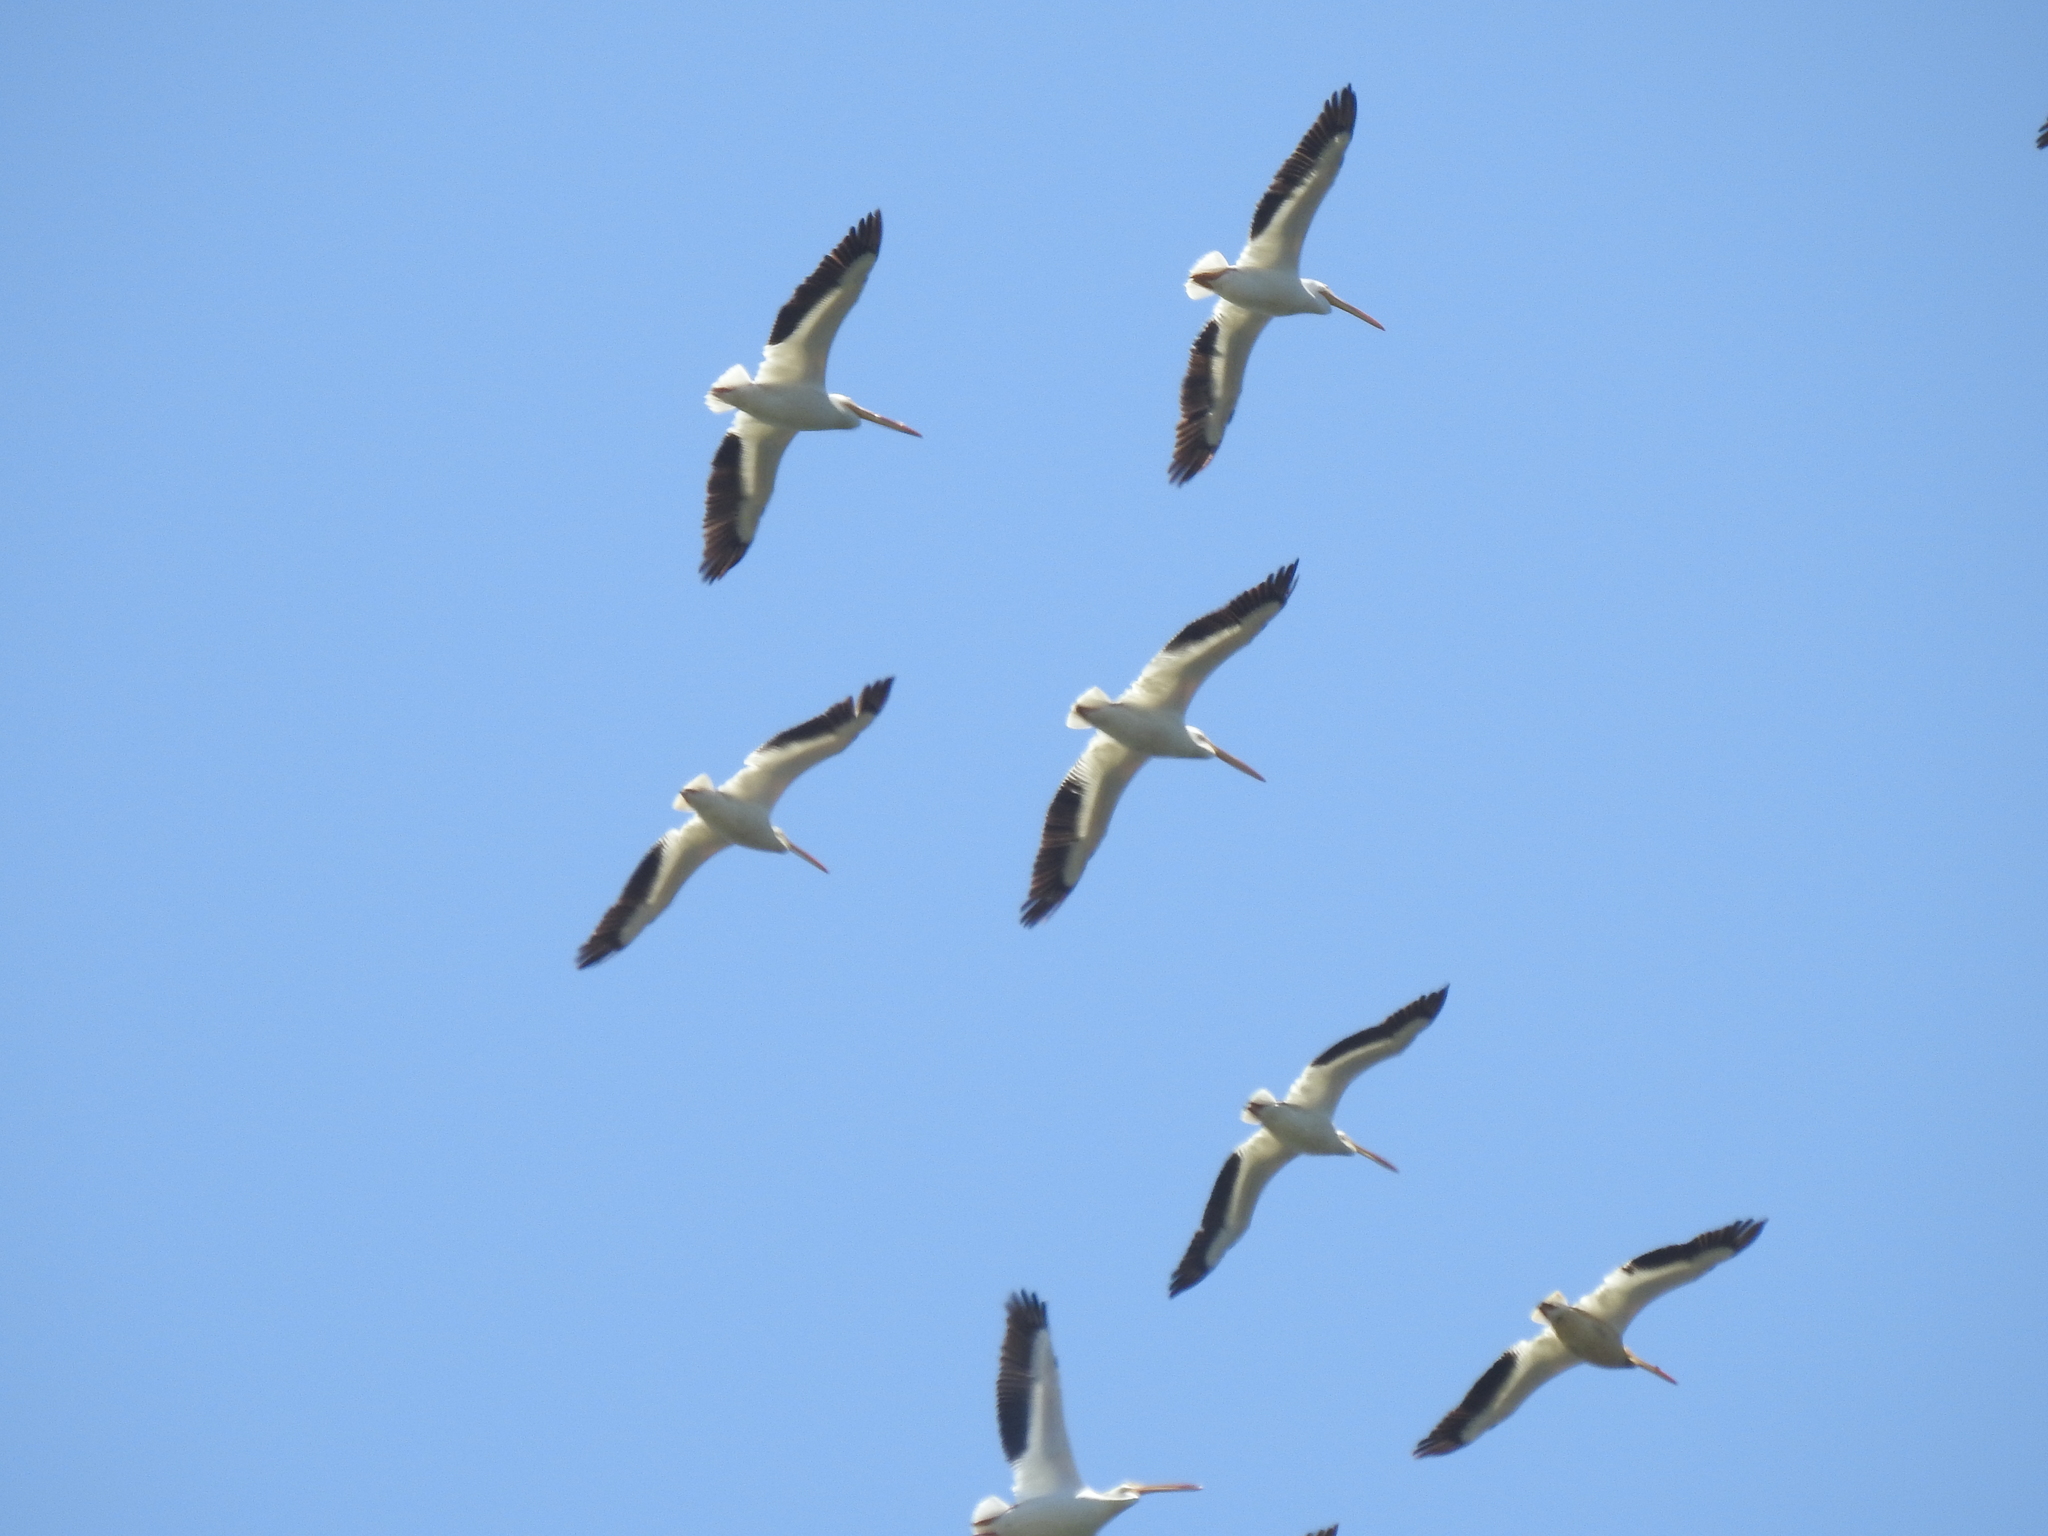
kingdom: Animalia
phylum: Chordata
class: Aves
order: Pelecaniformes
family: Pelecanidae
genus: Pelecanus
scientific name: Pelecanus erythrorhynchos
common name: American white pelican
